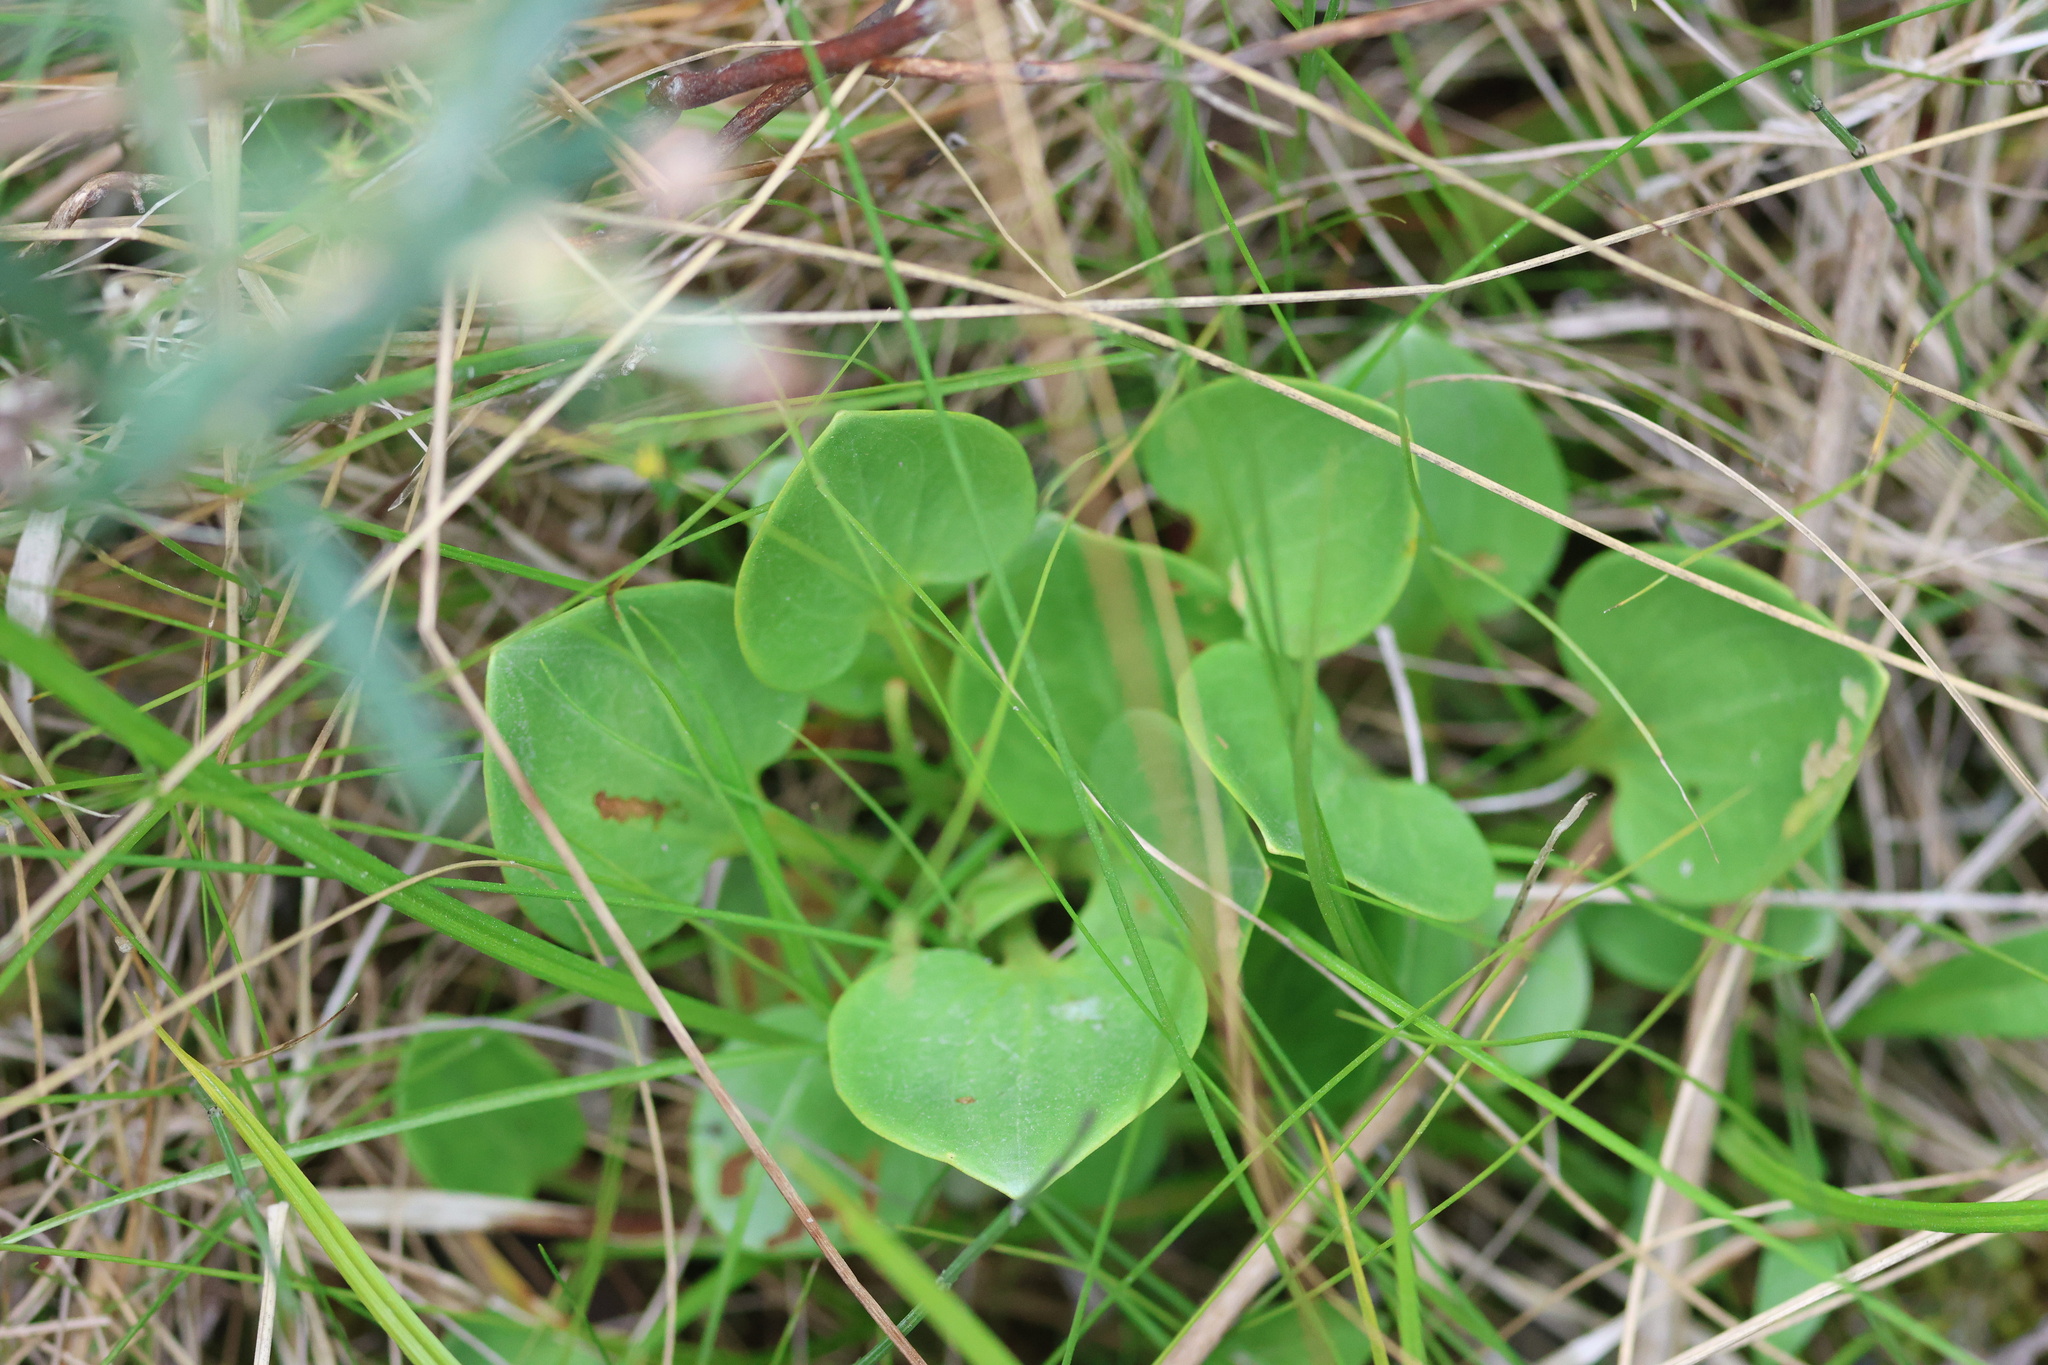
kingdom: Plantae
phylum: Tracheophyta
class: Magnoliopsida
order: Celastrales
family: Parnassiaceae
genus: Parnassia
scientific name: Parnassia glauca
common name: American grass-of-parnassus
